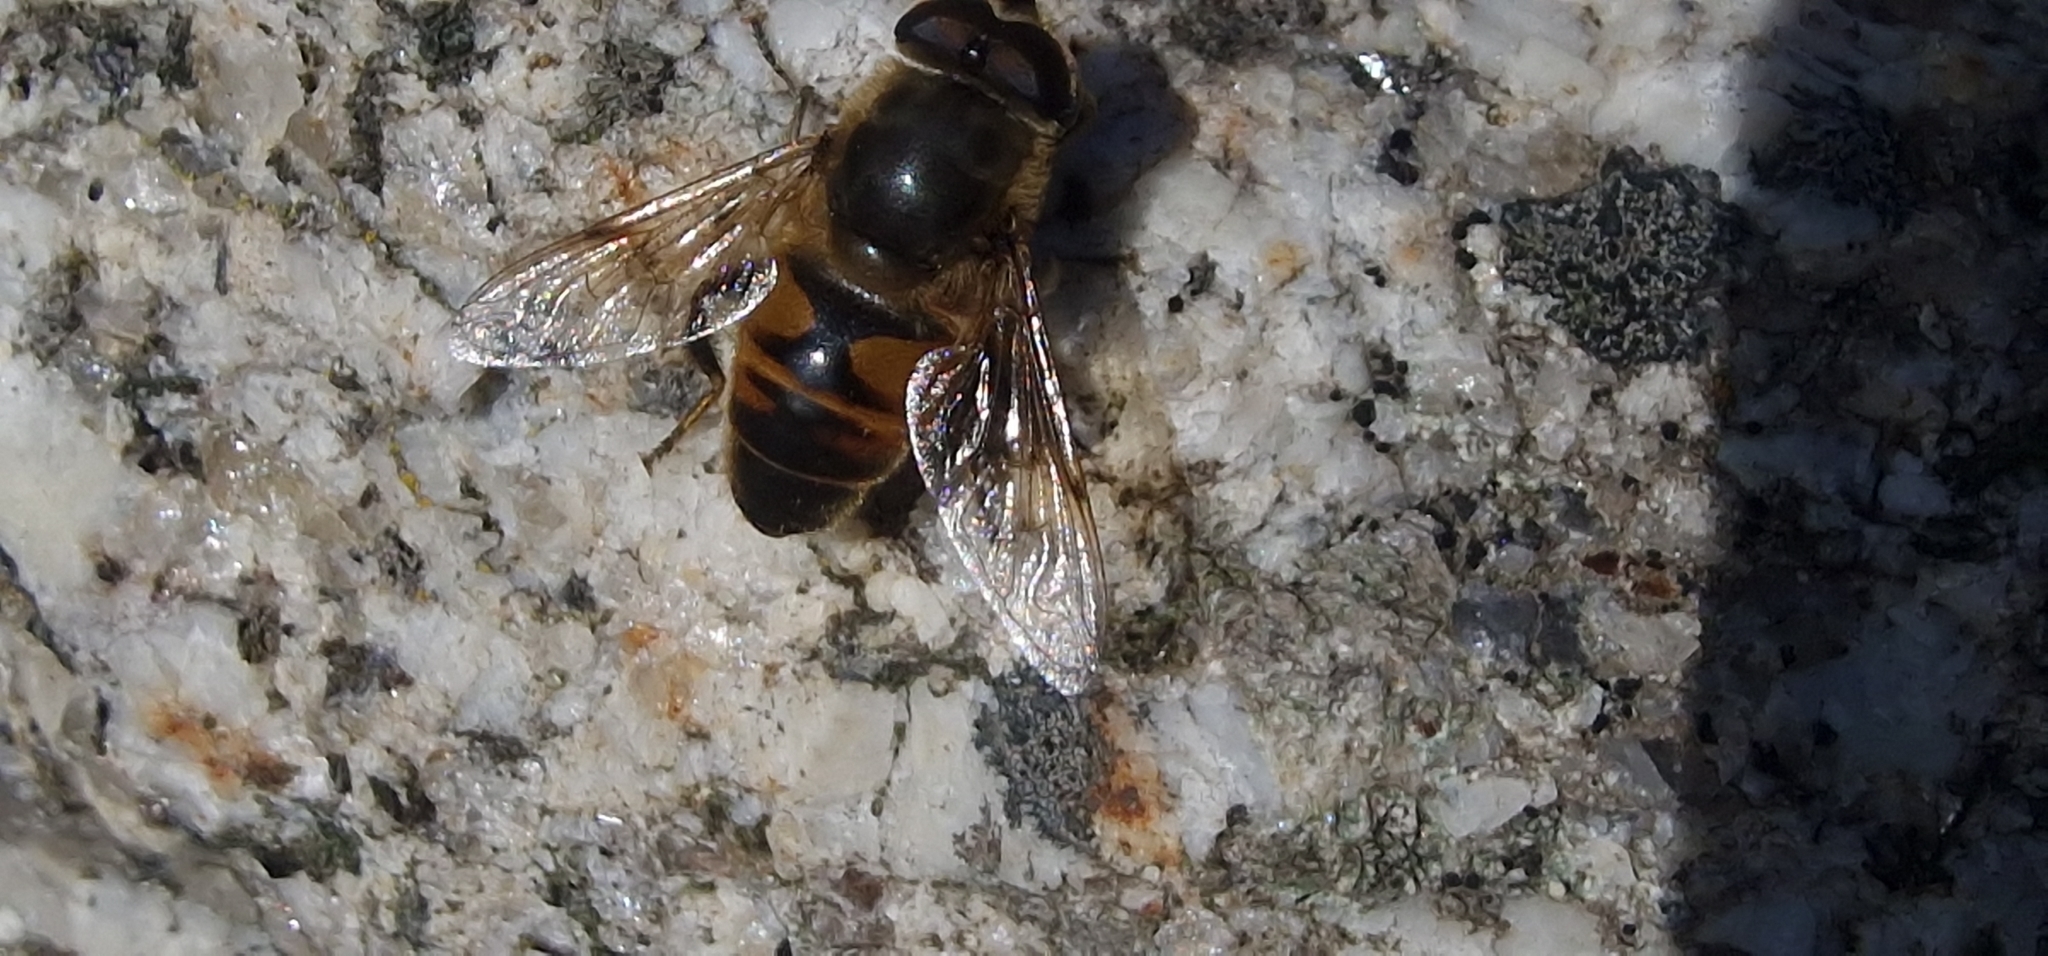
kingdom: Animalia
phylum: Arthropoda
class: Insecta
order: Diptera
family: Syrphidae
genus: Eristalis
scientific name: Eristalis tenax
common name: Drone fly
